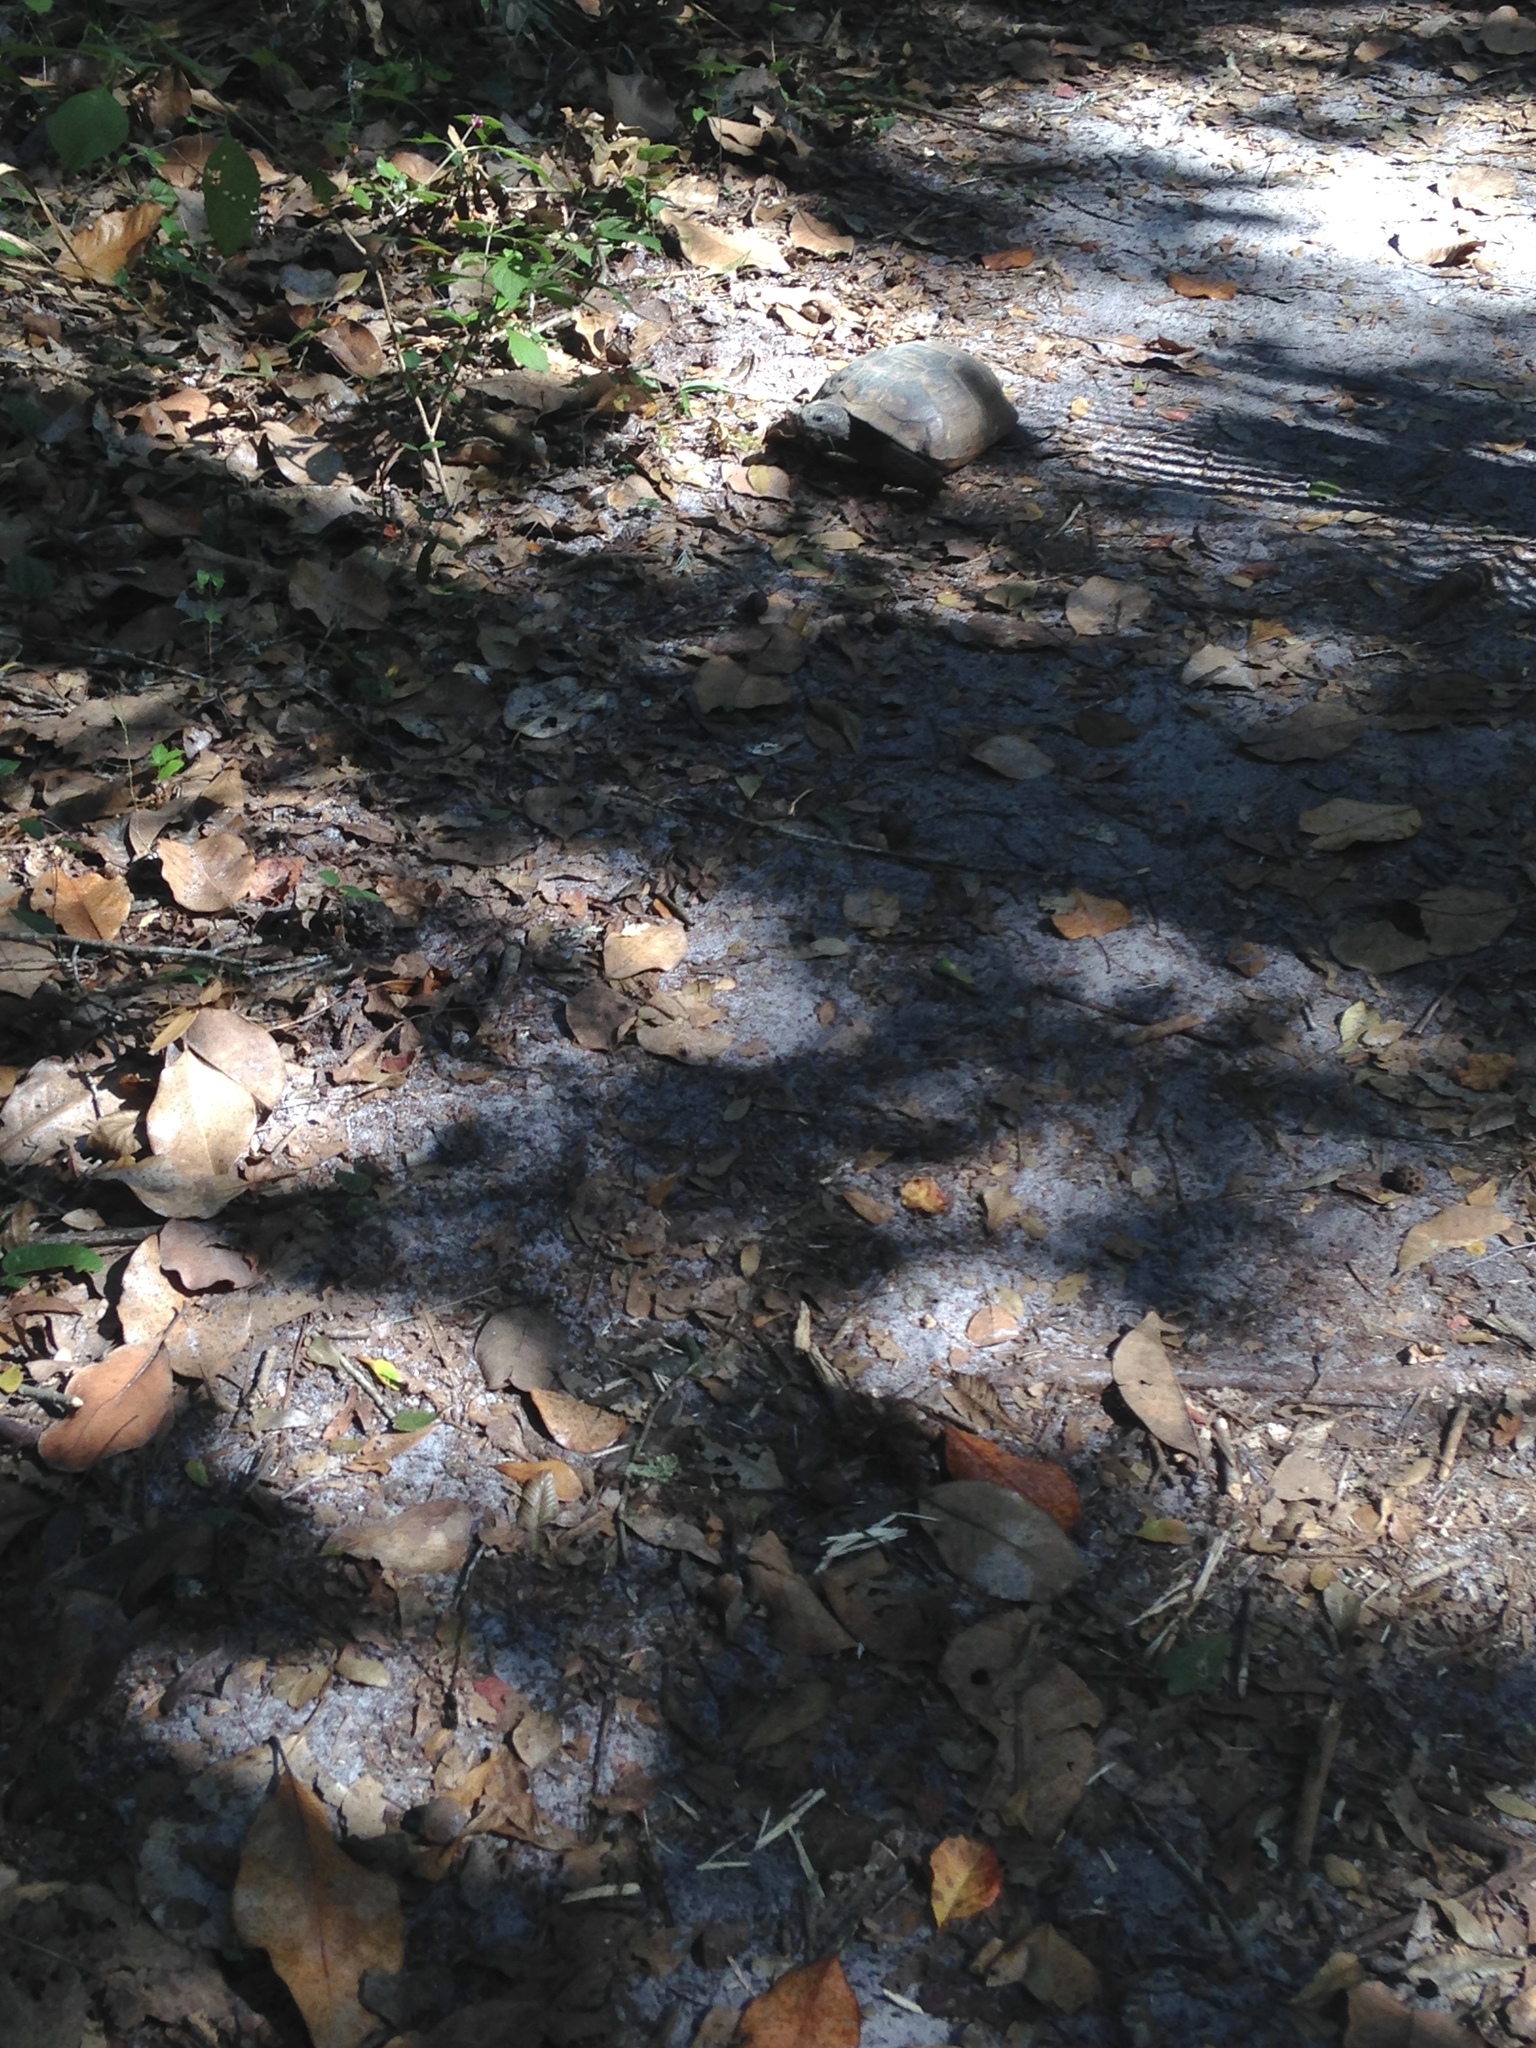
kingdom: Animalia
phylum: Chordata
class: Testudines
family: Testudinidae
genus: Gopherus
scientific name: Gopherus polyphemus
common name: Florida gopher tortoise
